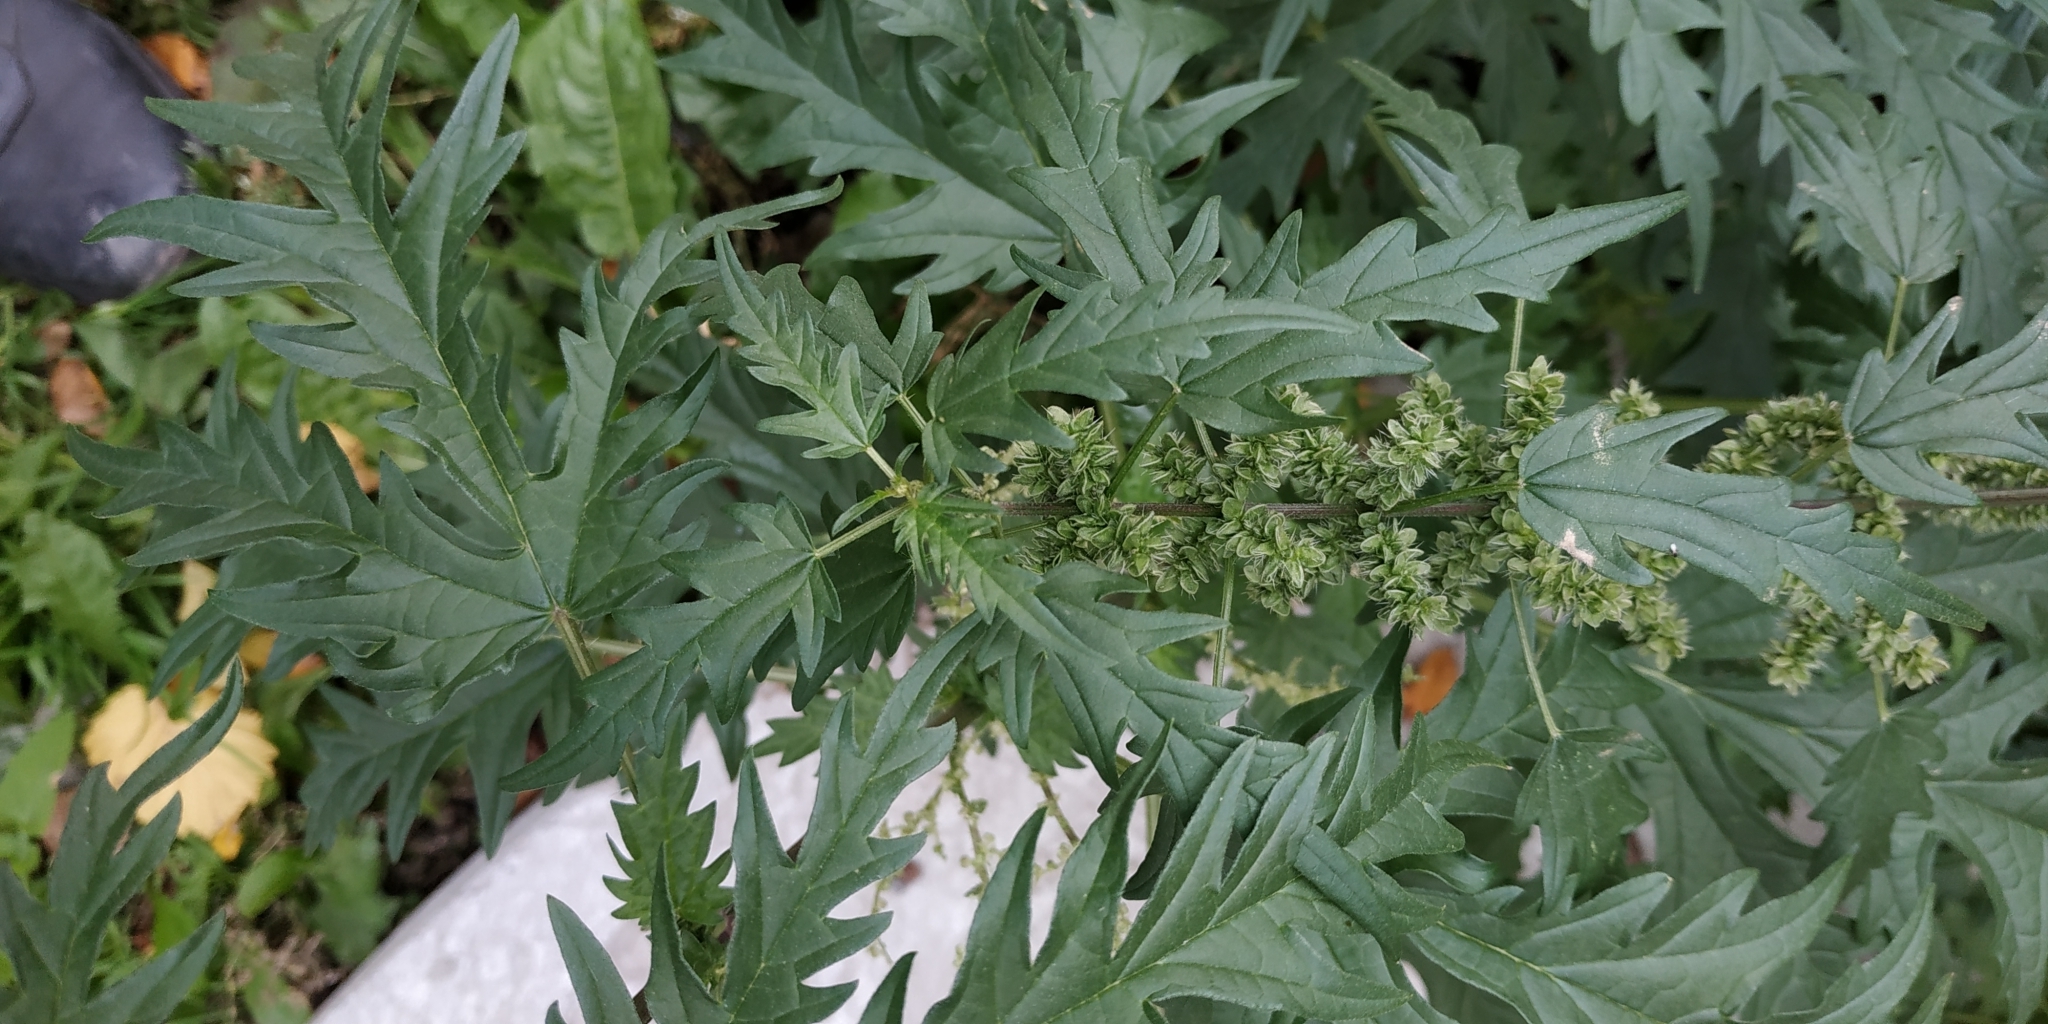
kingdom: Plantae
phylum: Tracheophyta
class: Magnoliopsida
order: Rosales
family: Urticaceae
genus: Urtica
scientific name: Urtica cannabina
